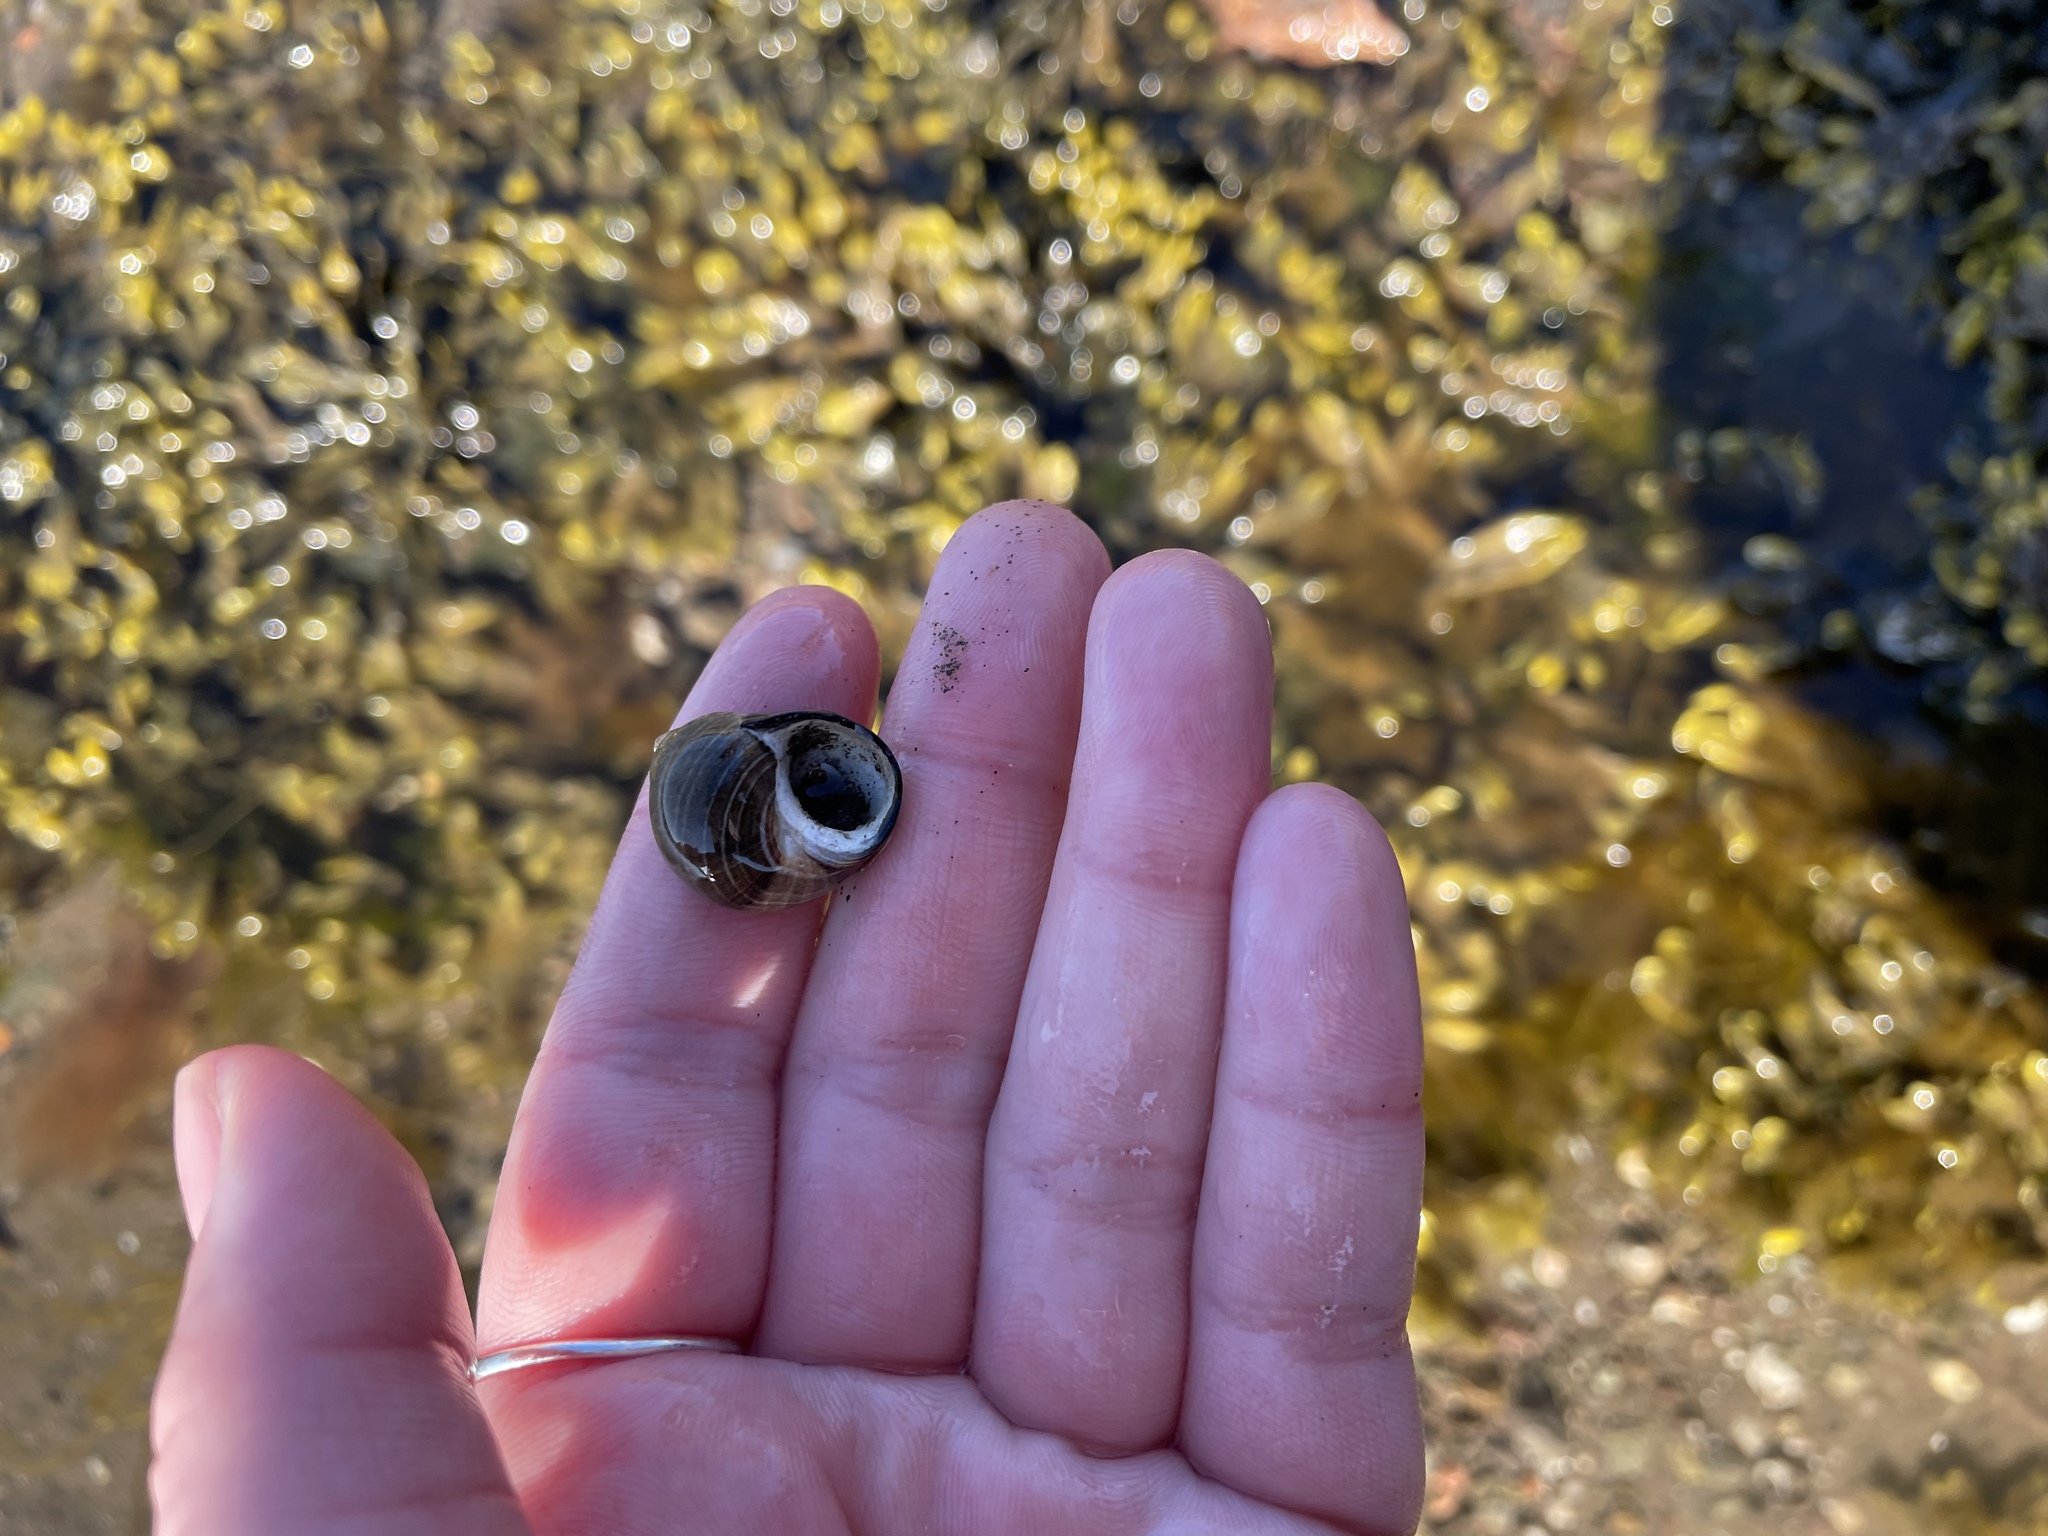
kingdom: Animalia
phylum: Mollusca
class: Gastropoda
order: Littorinimorpha
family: Littorinidae
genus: Littorina
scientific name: Littorina littorea
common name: Common periwinkle
